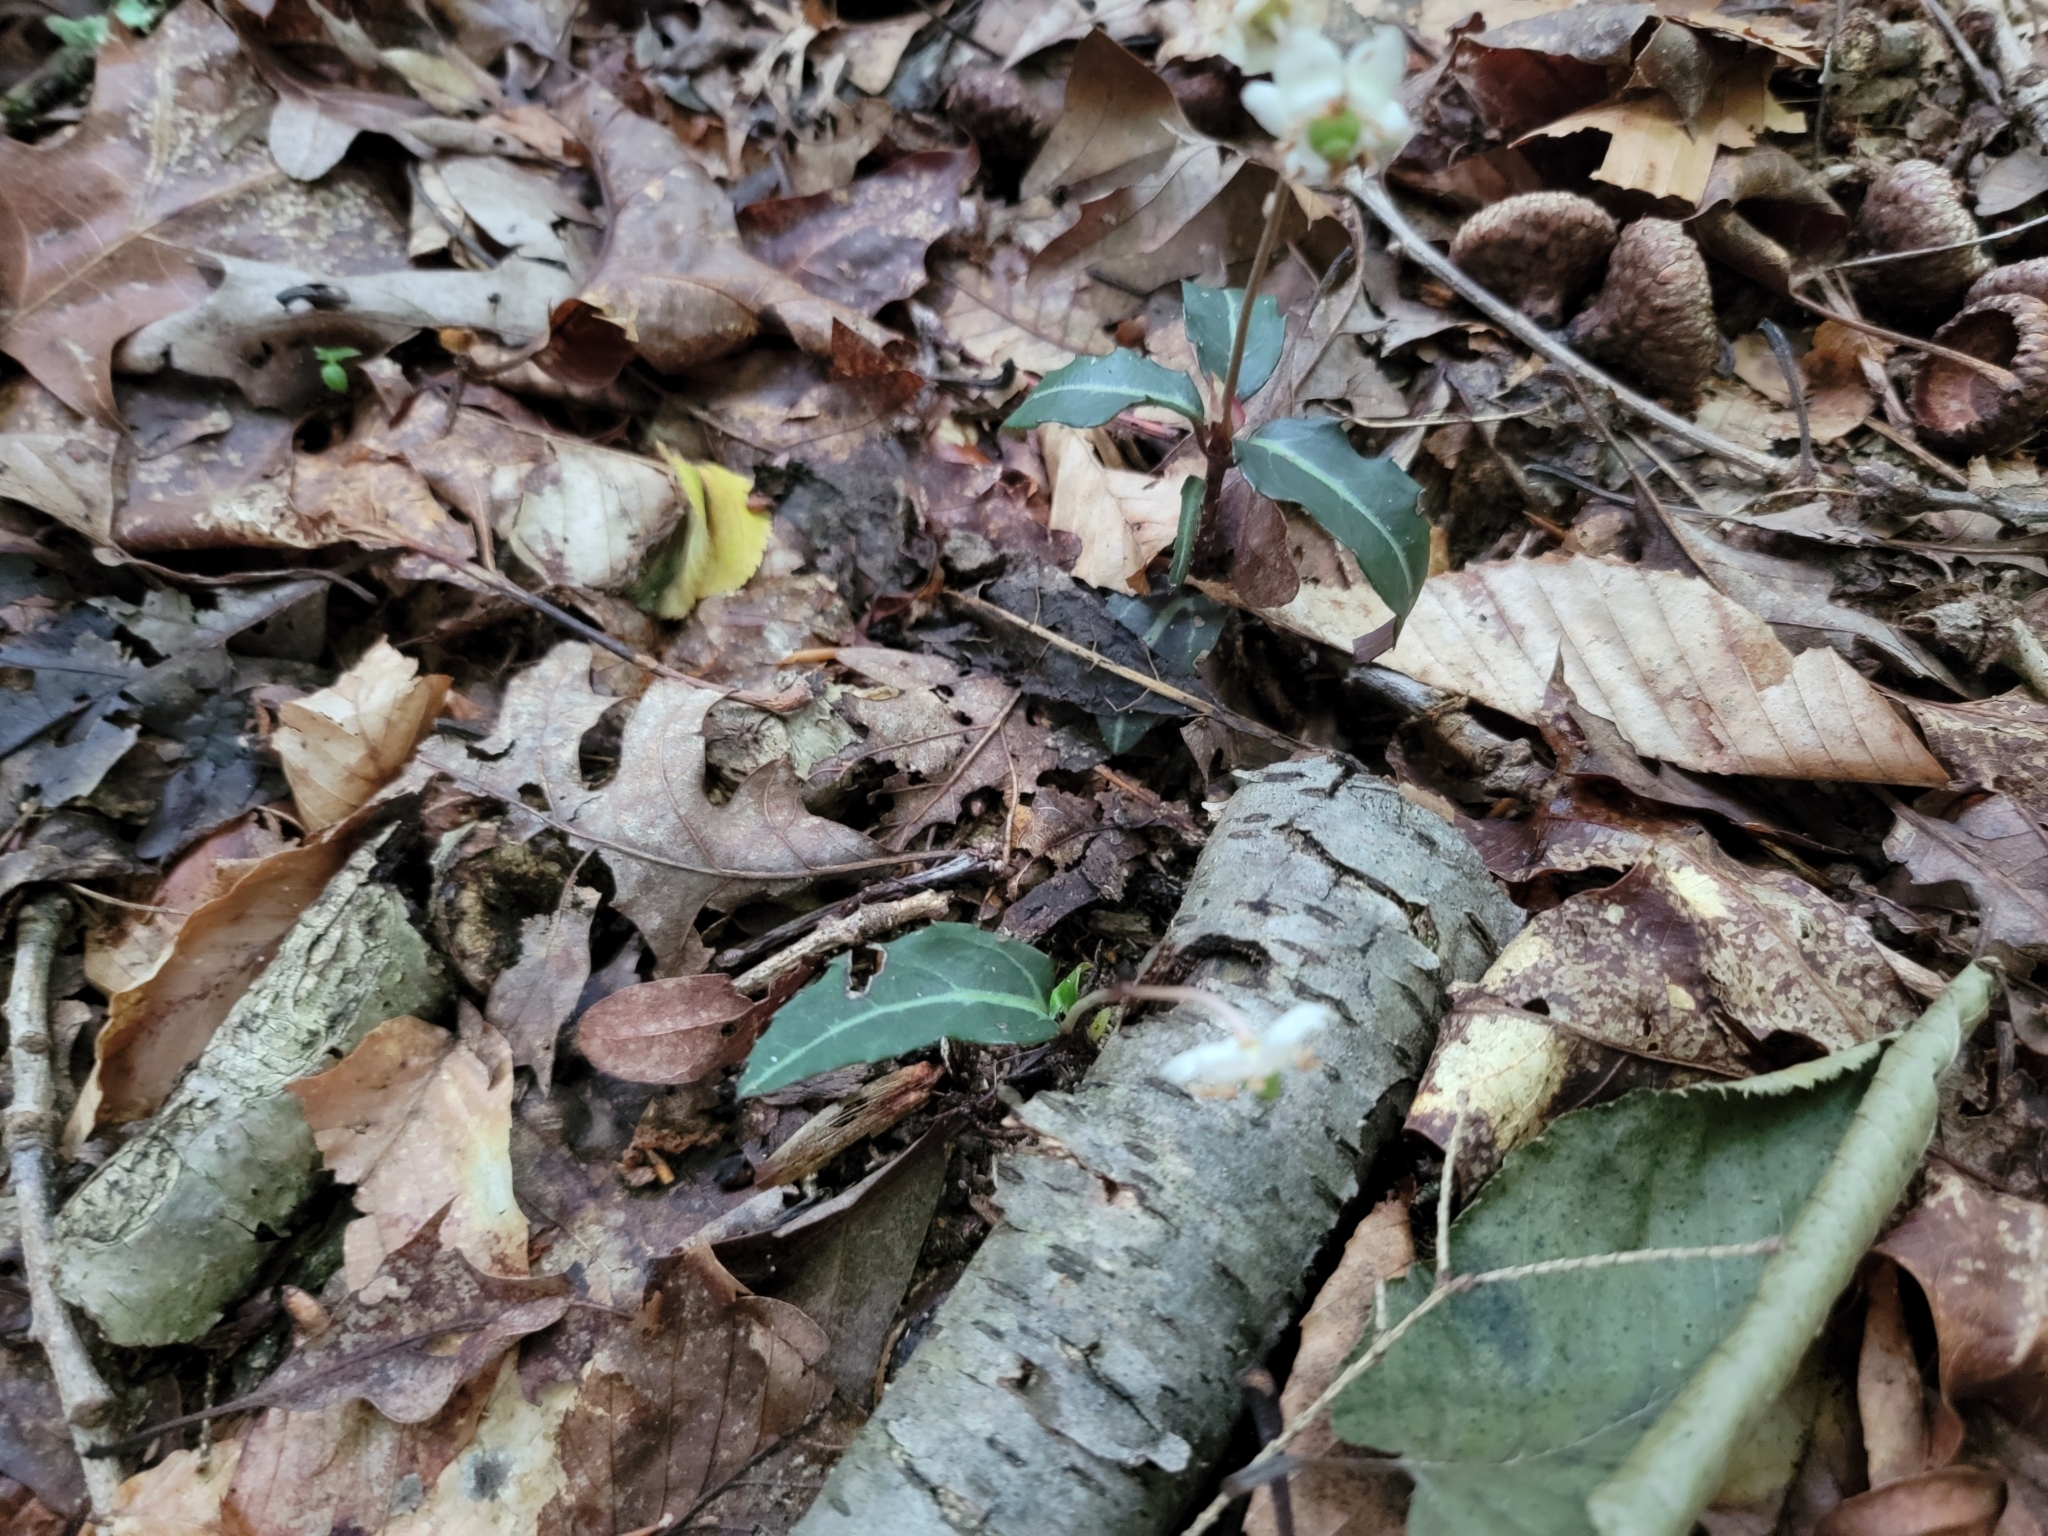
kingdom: Plantae
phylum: Tracheophyta
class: Magnoliopsida
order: Ericales
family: Ericaceae
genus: Chimaphila
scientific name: Chimaphila maculata
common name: Spotted pipsissewa
